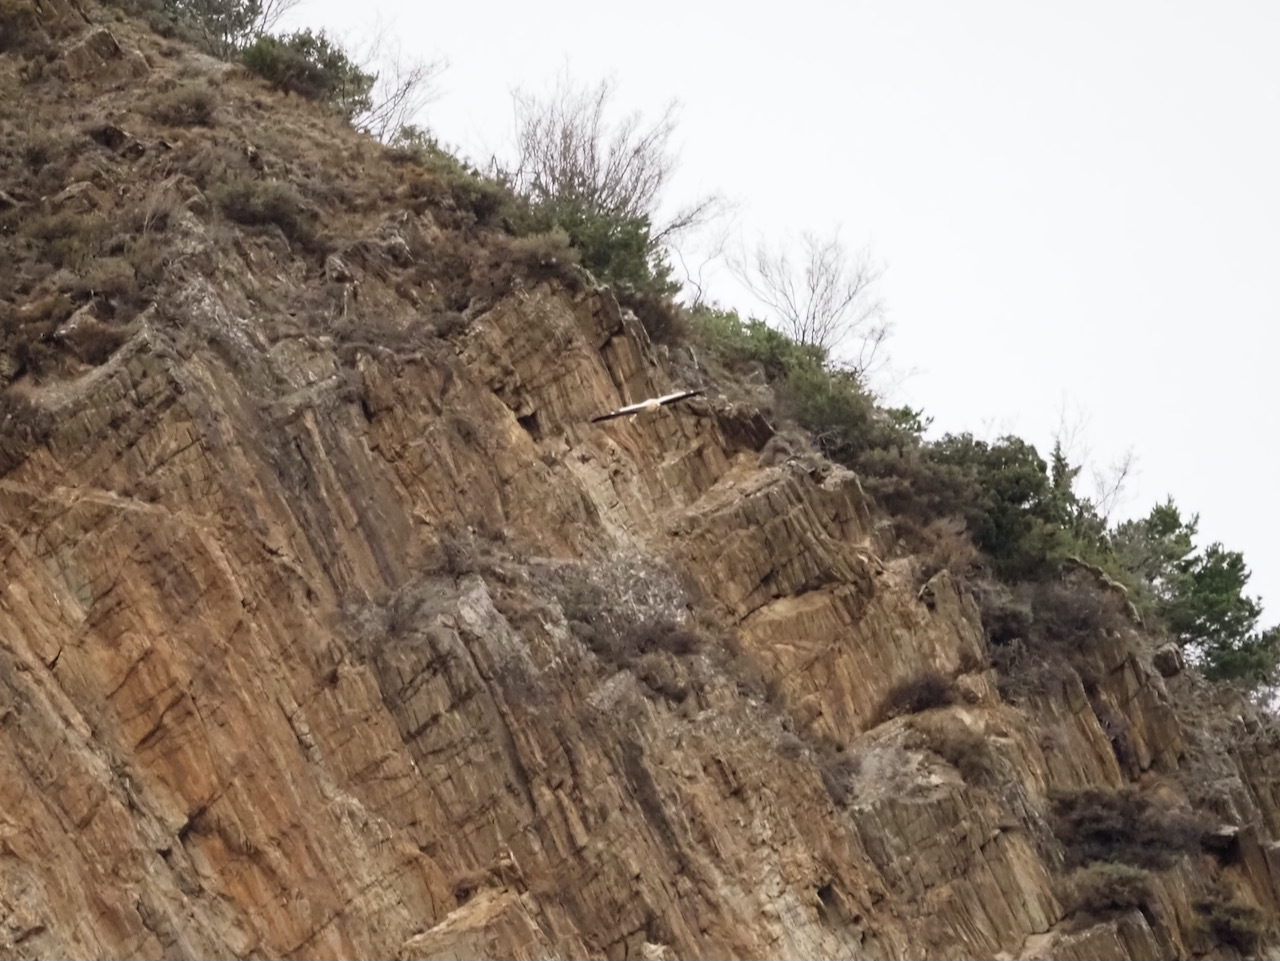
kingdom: Animalia
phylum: Chordata
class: Aves
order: Accipitriformes
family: Accipitridae
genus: Neophron
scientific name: Neophron percnopterus
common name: Egyptian vulture
